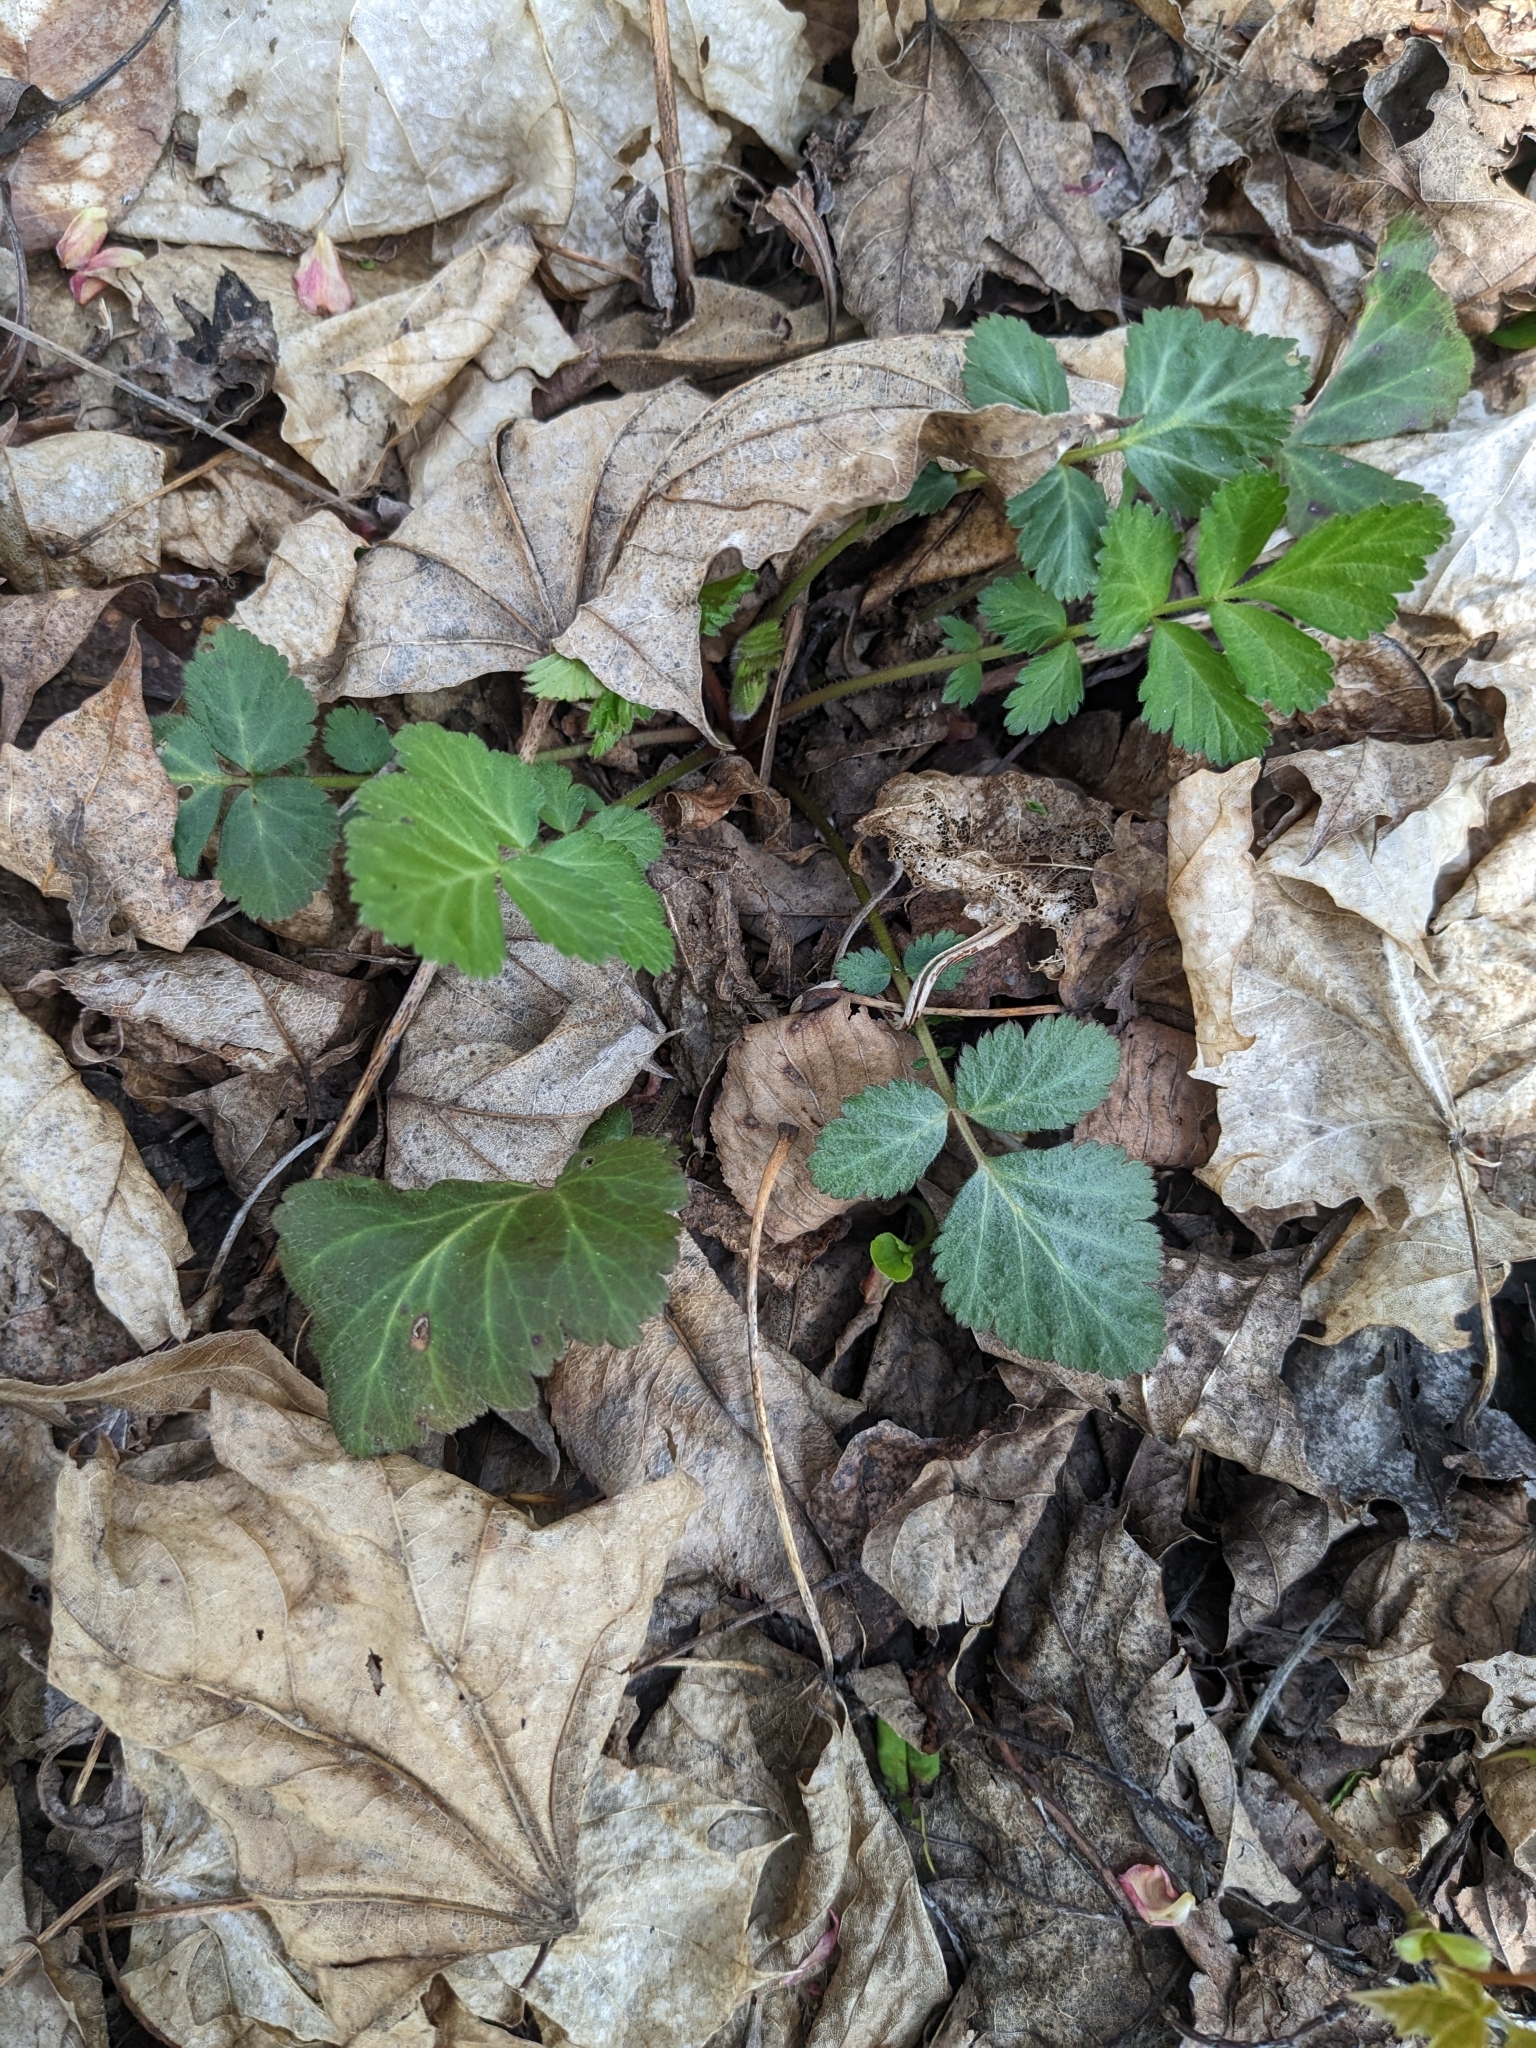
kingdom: Plantae
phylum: Tracheophyta
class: Magnoliopsida
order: Rosales
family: Rosaceae
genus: Geum
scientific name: Geum canadense
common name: White avens
